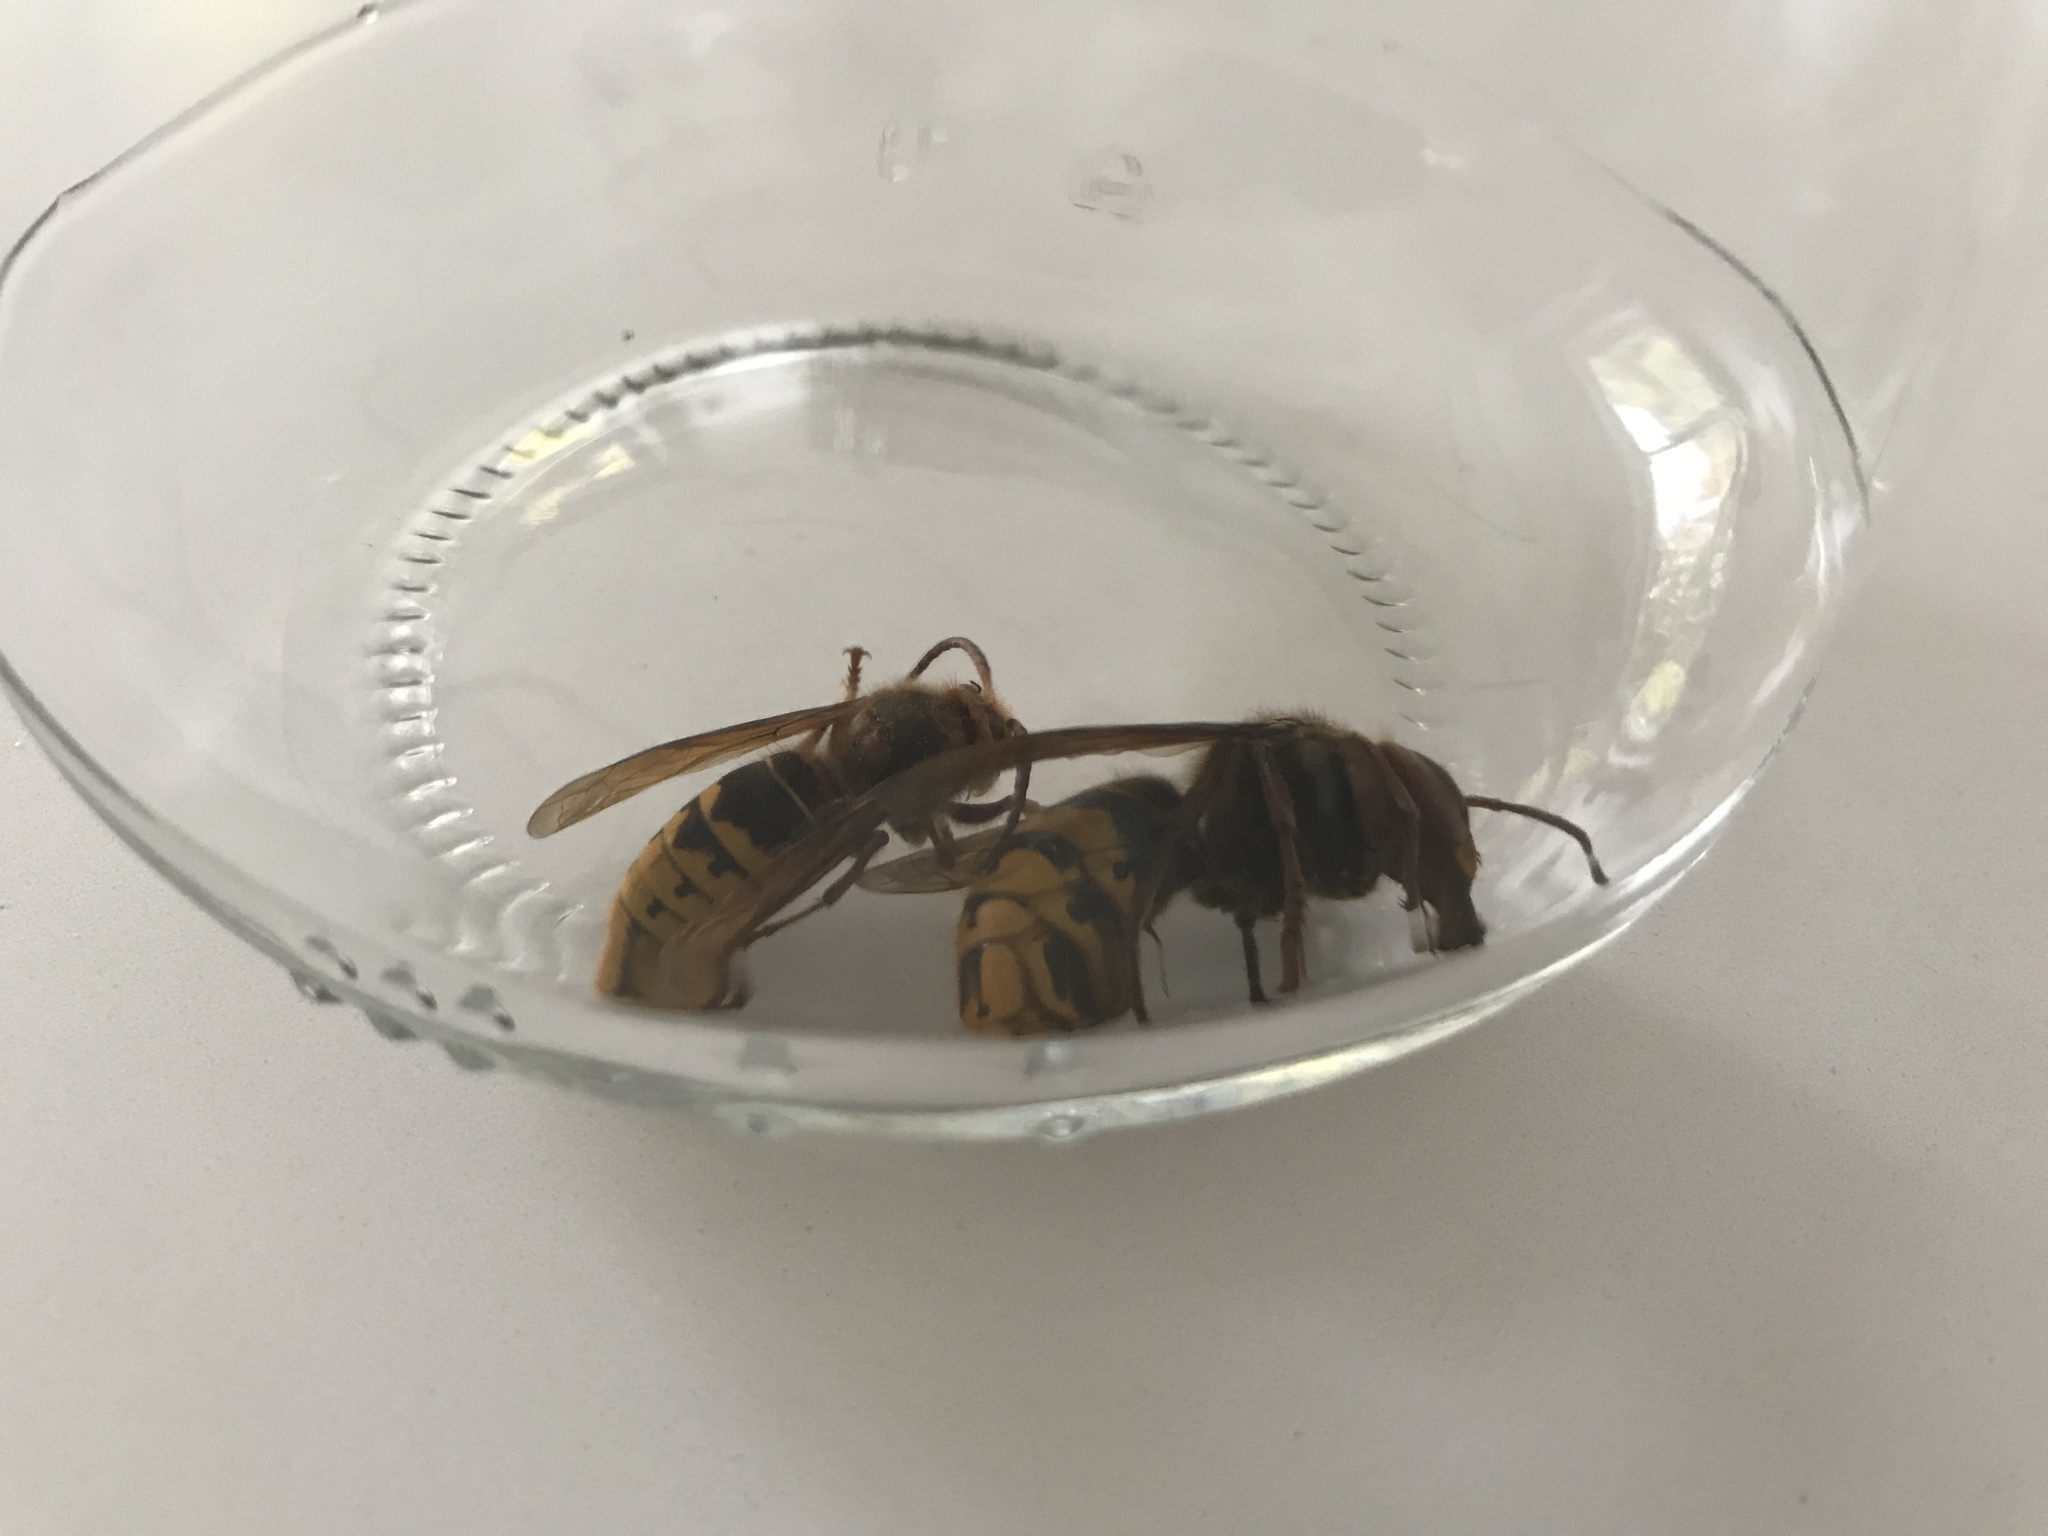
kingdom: Animalia
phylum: Arthropoda
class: Insecta
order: Hymenoptera
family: Vespidae
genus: Vespa
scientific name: Vespa crabro
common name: Hornet
